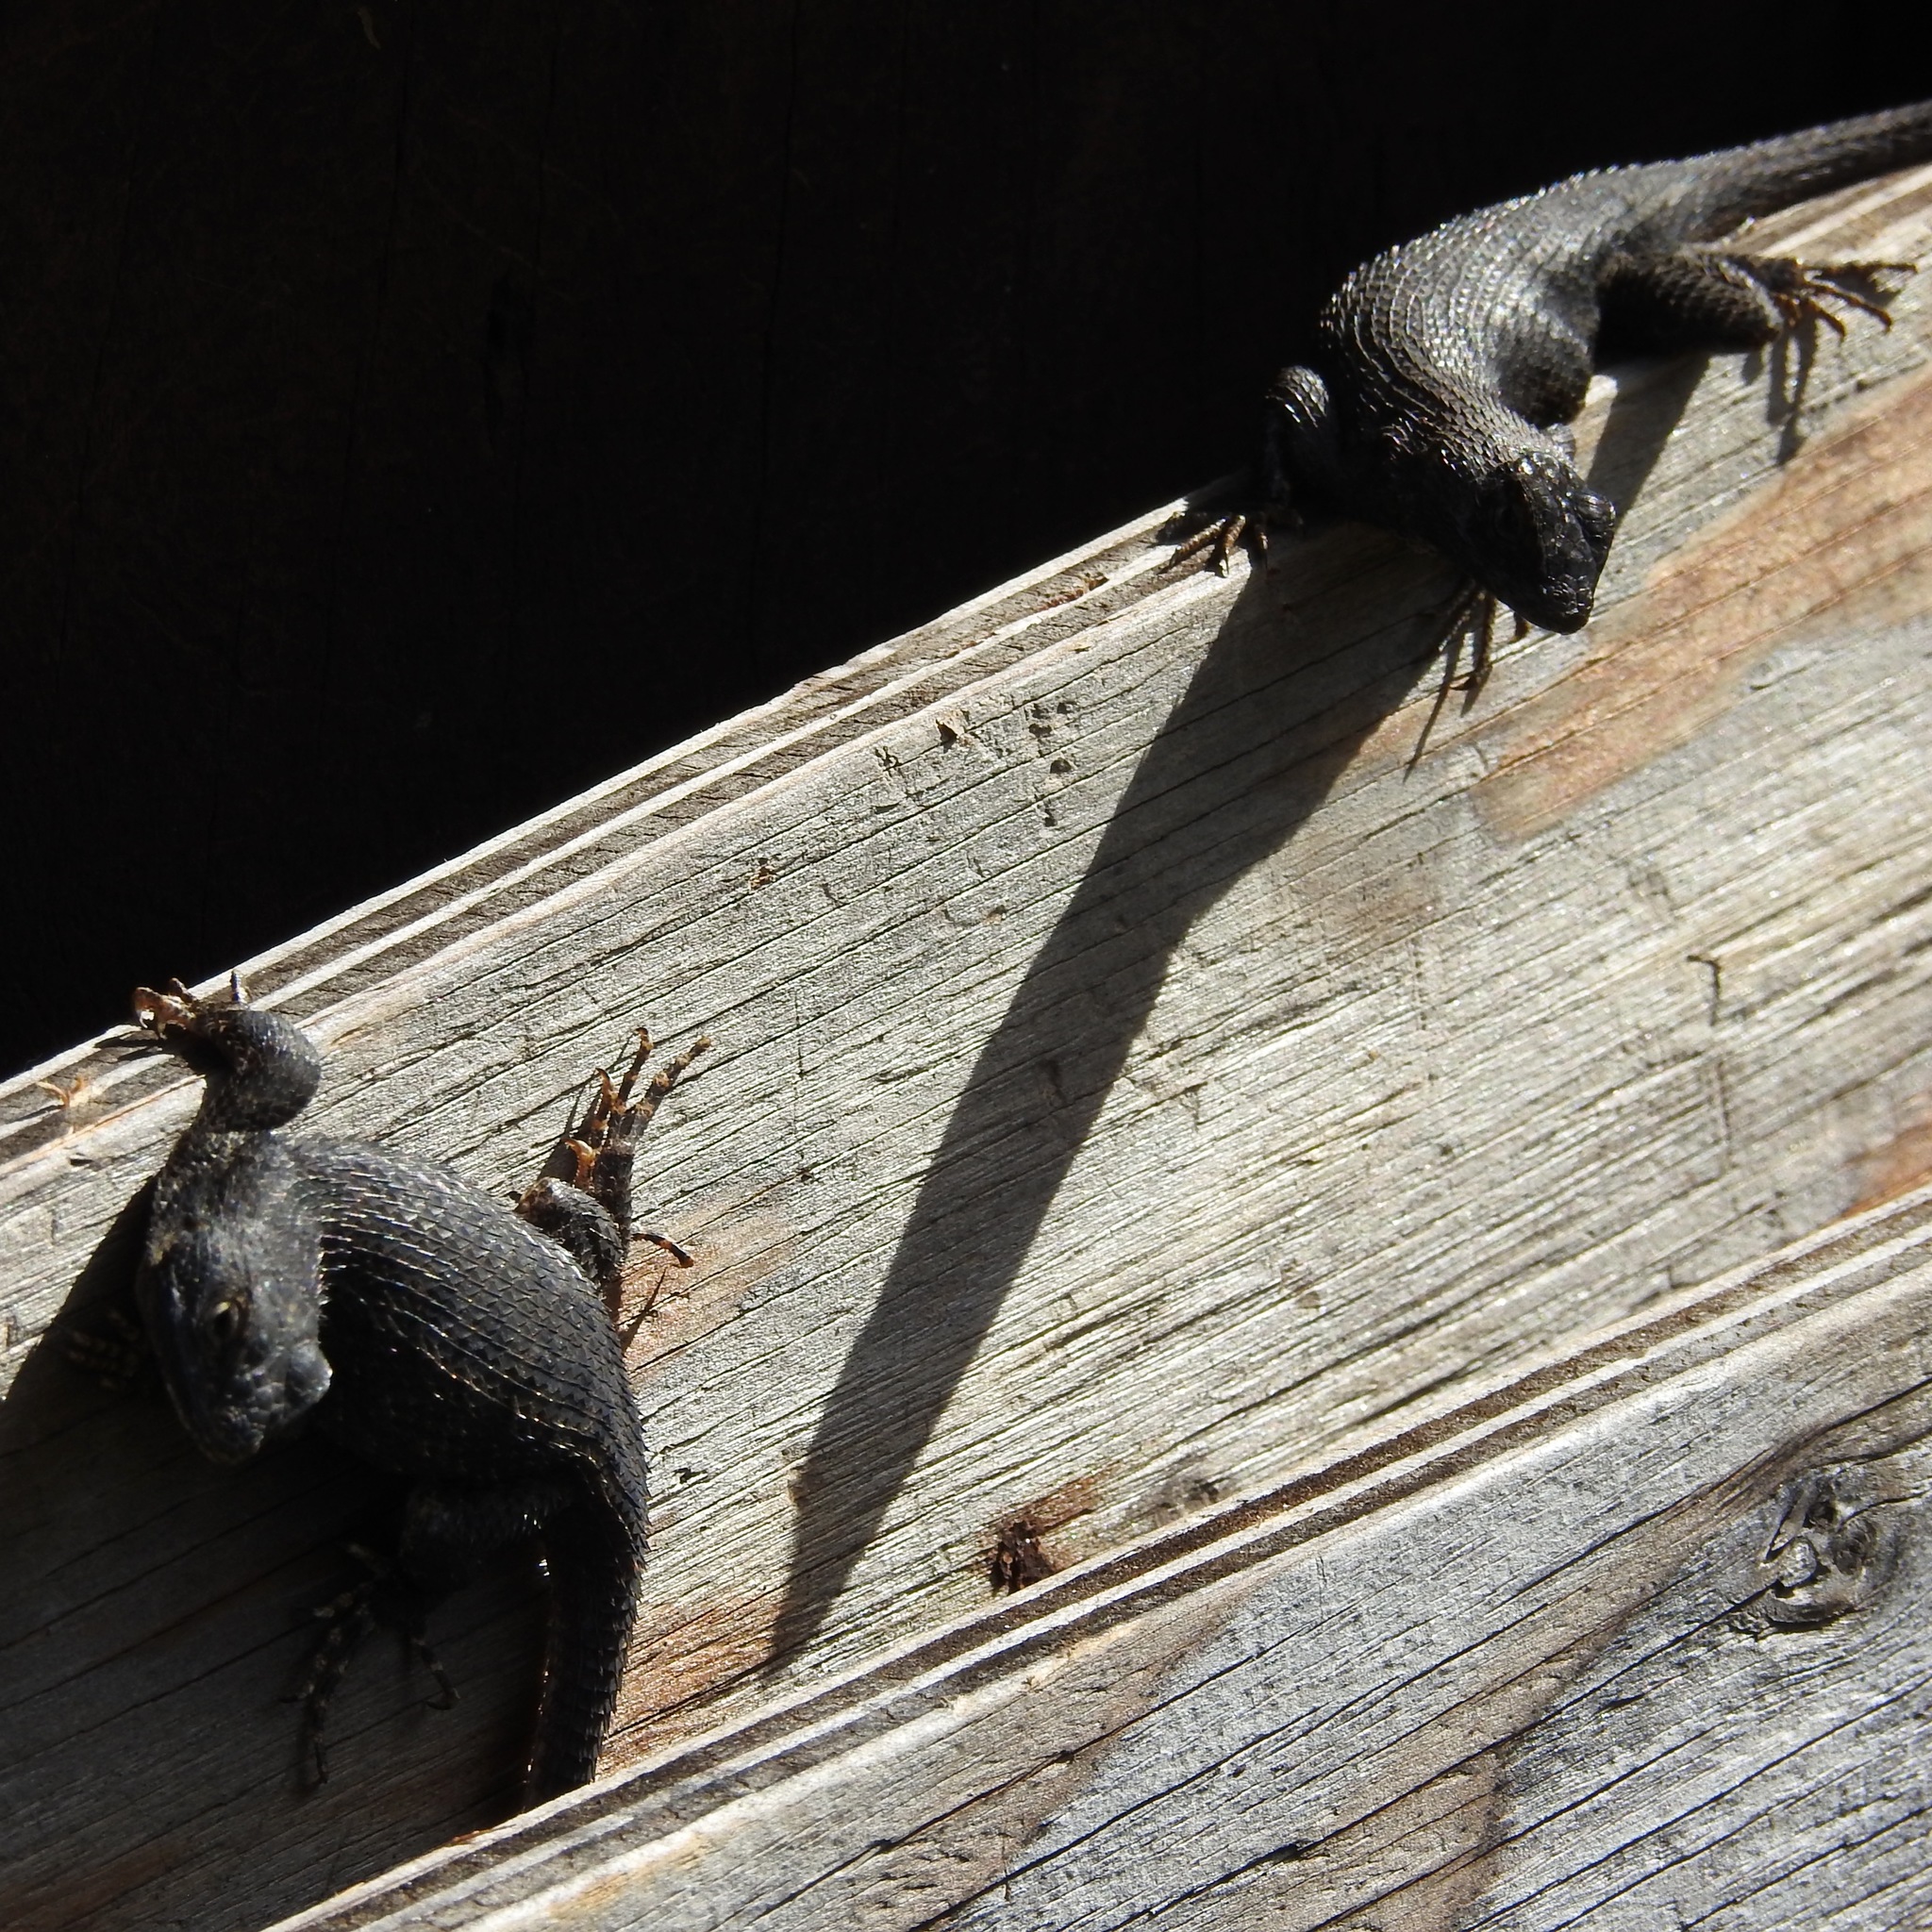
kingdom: Animalia
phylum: Chordata
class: Squamata
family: Phrynosomatidae
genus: Sceloporus
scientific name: Sceloporus occidentalis
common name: Western fence lizard
